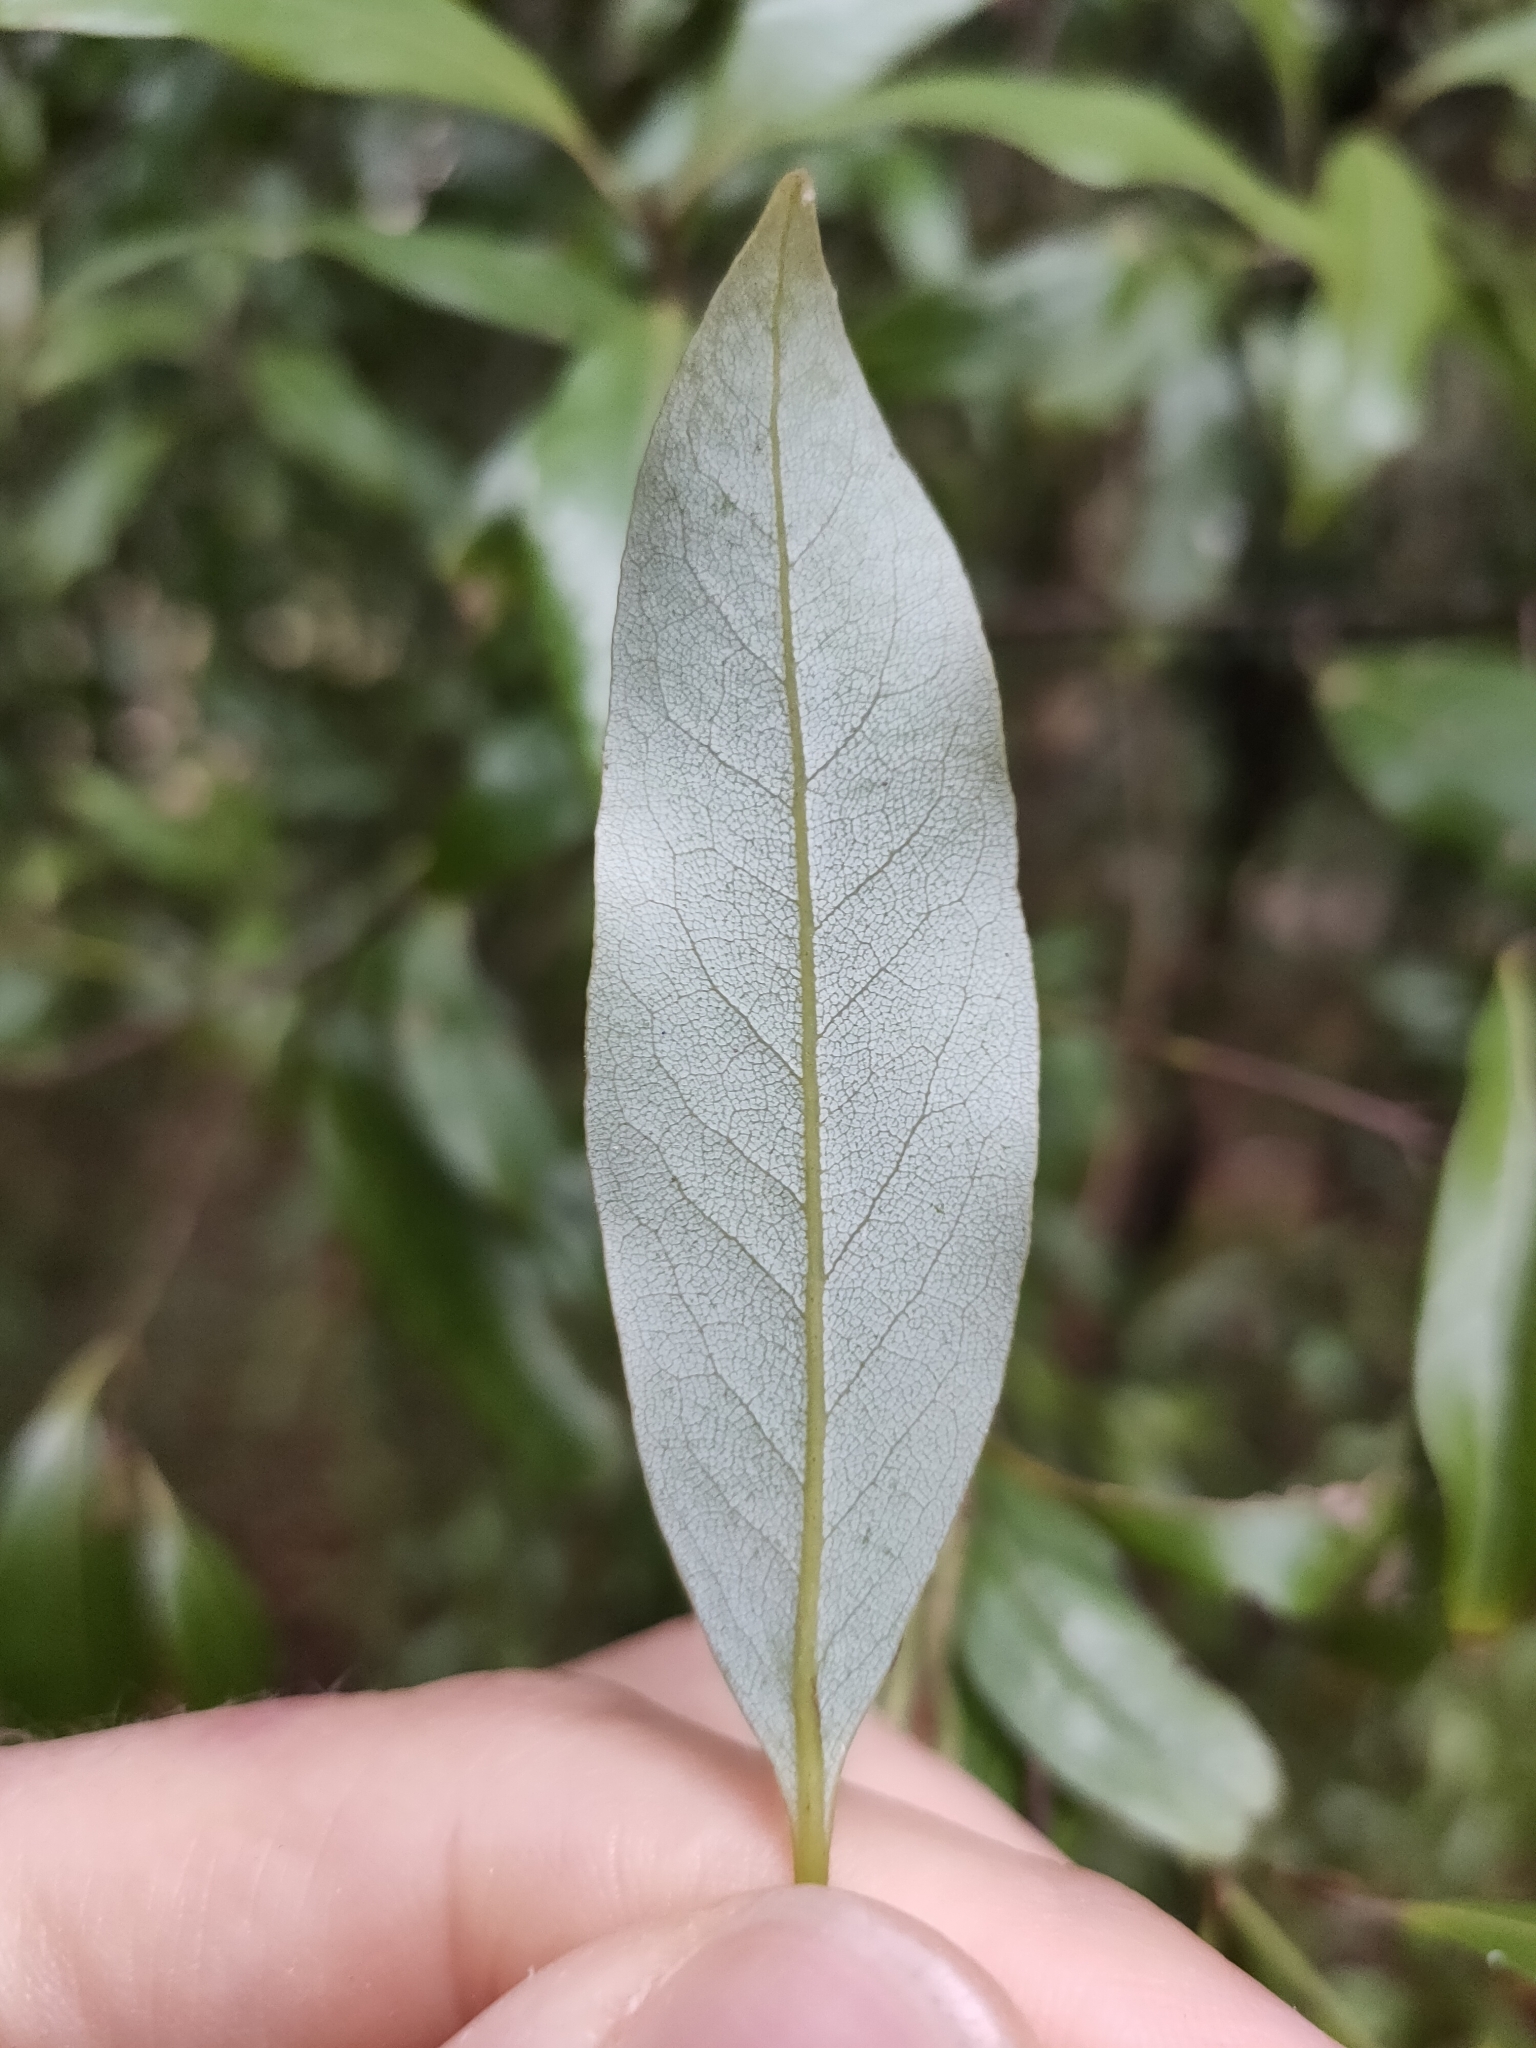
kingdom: Plantae
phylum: Tracheophyta
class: Magnoliopsida
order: Laurales
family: Lauraceae
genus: Beilschmiedia
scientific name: Beilschmiedia tawa
